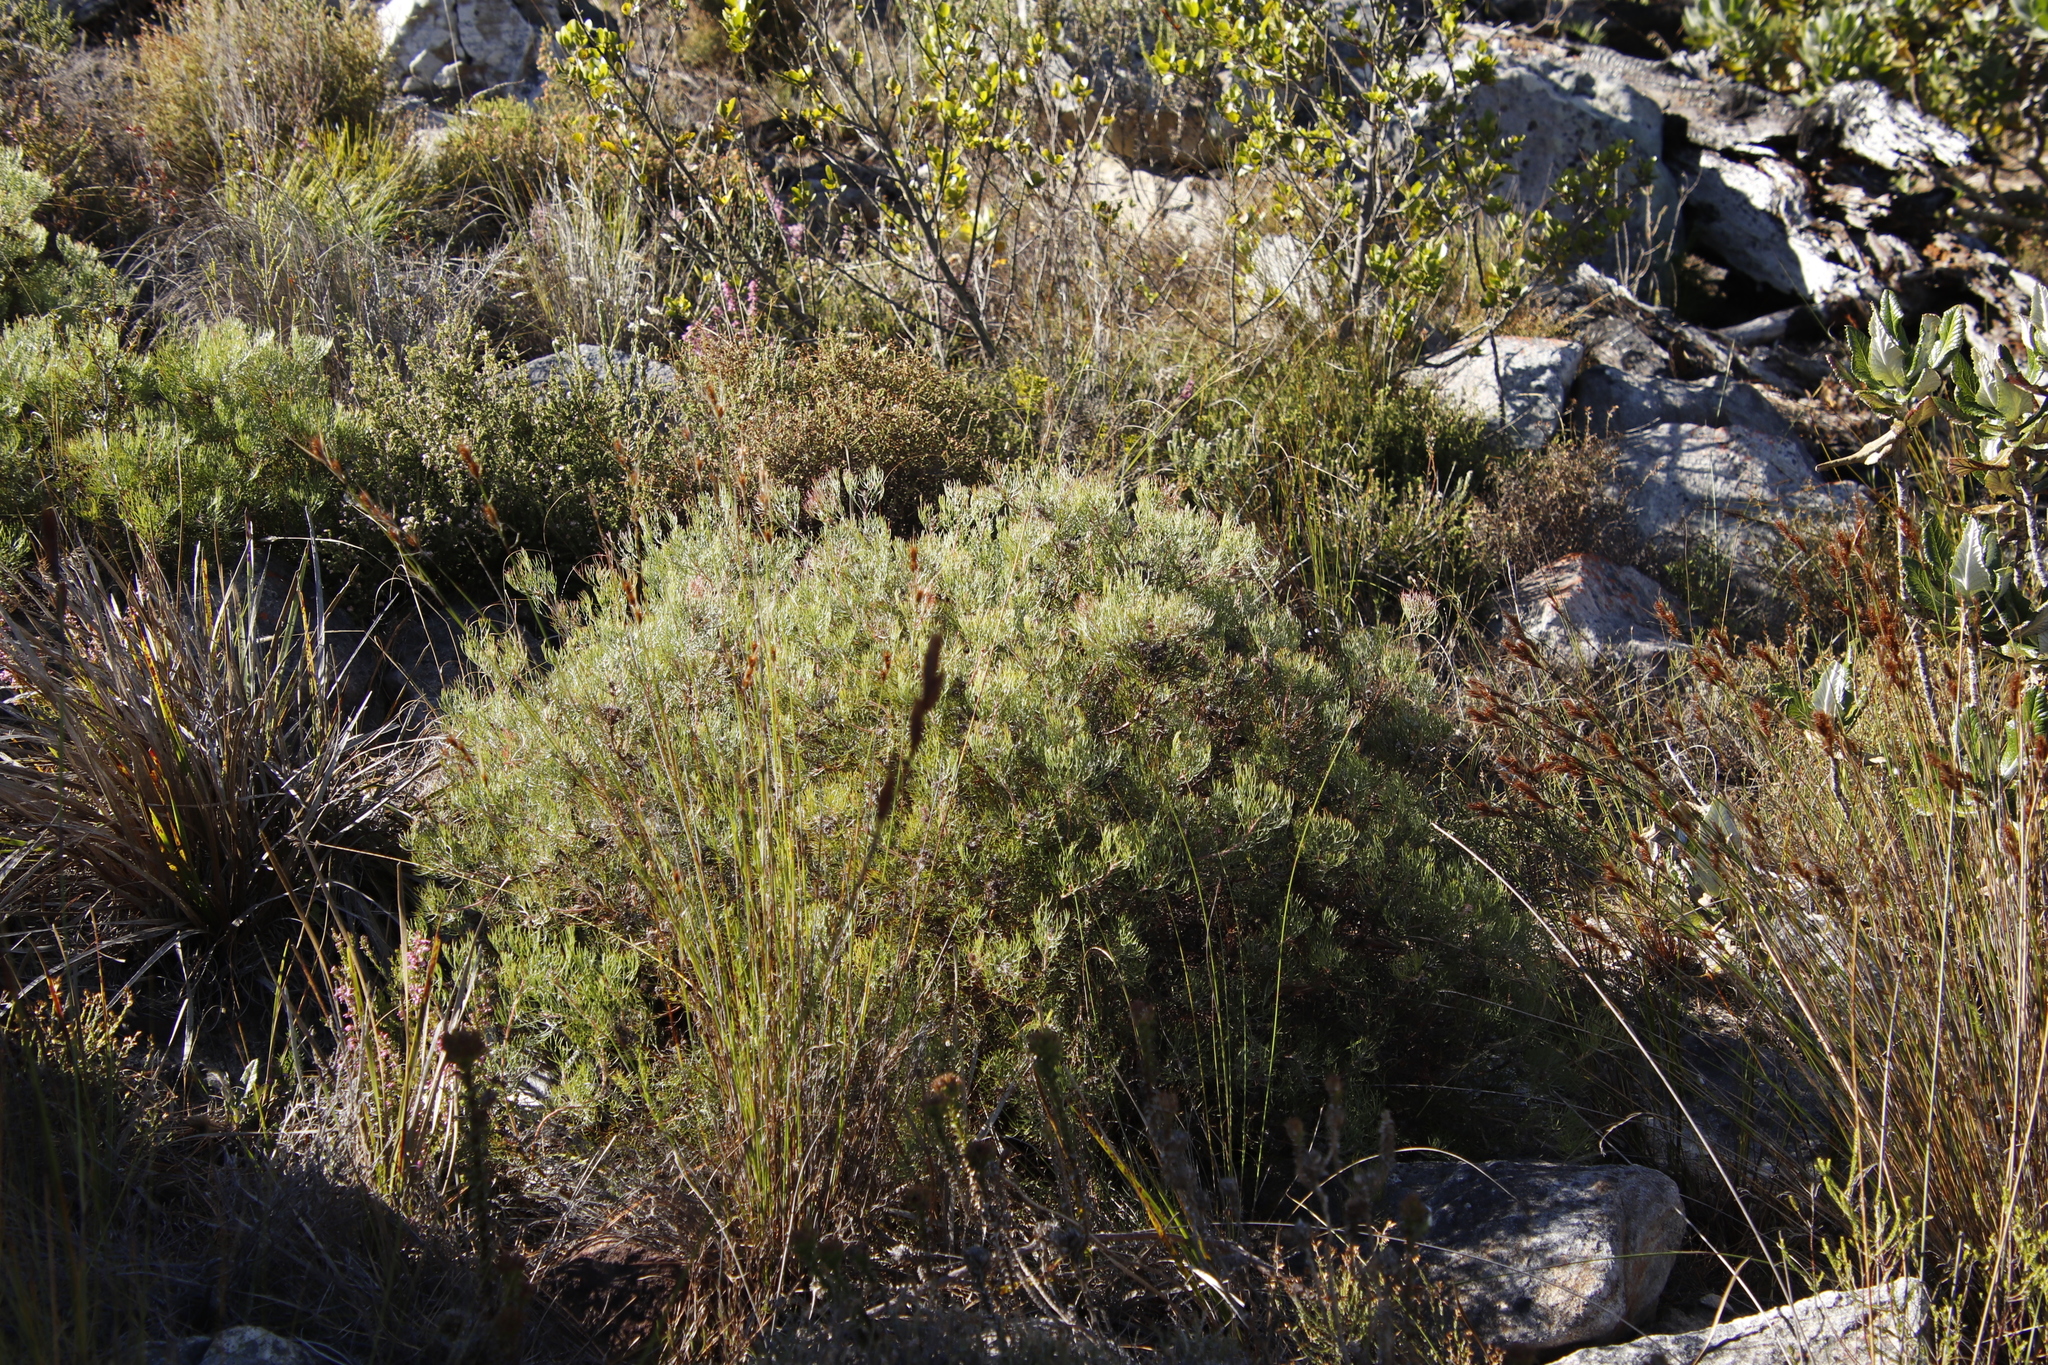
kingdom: Plantae
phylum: Tracheophyta
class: Magnoliopsida
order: Proteales
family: Proteaceae
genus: Serruria
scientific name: Serruria fasciflora
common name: Common pin spiderhead
